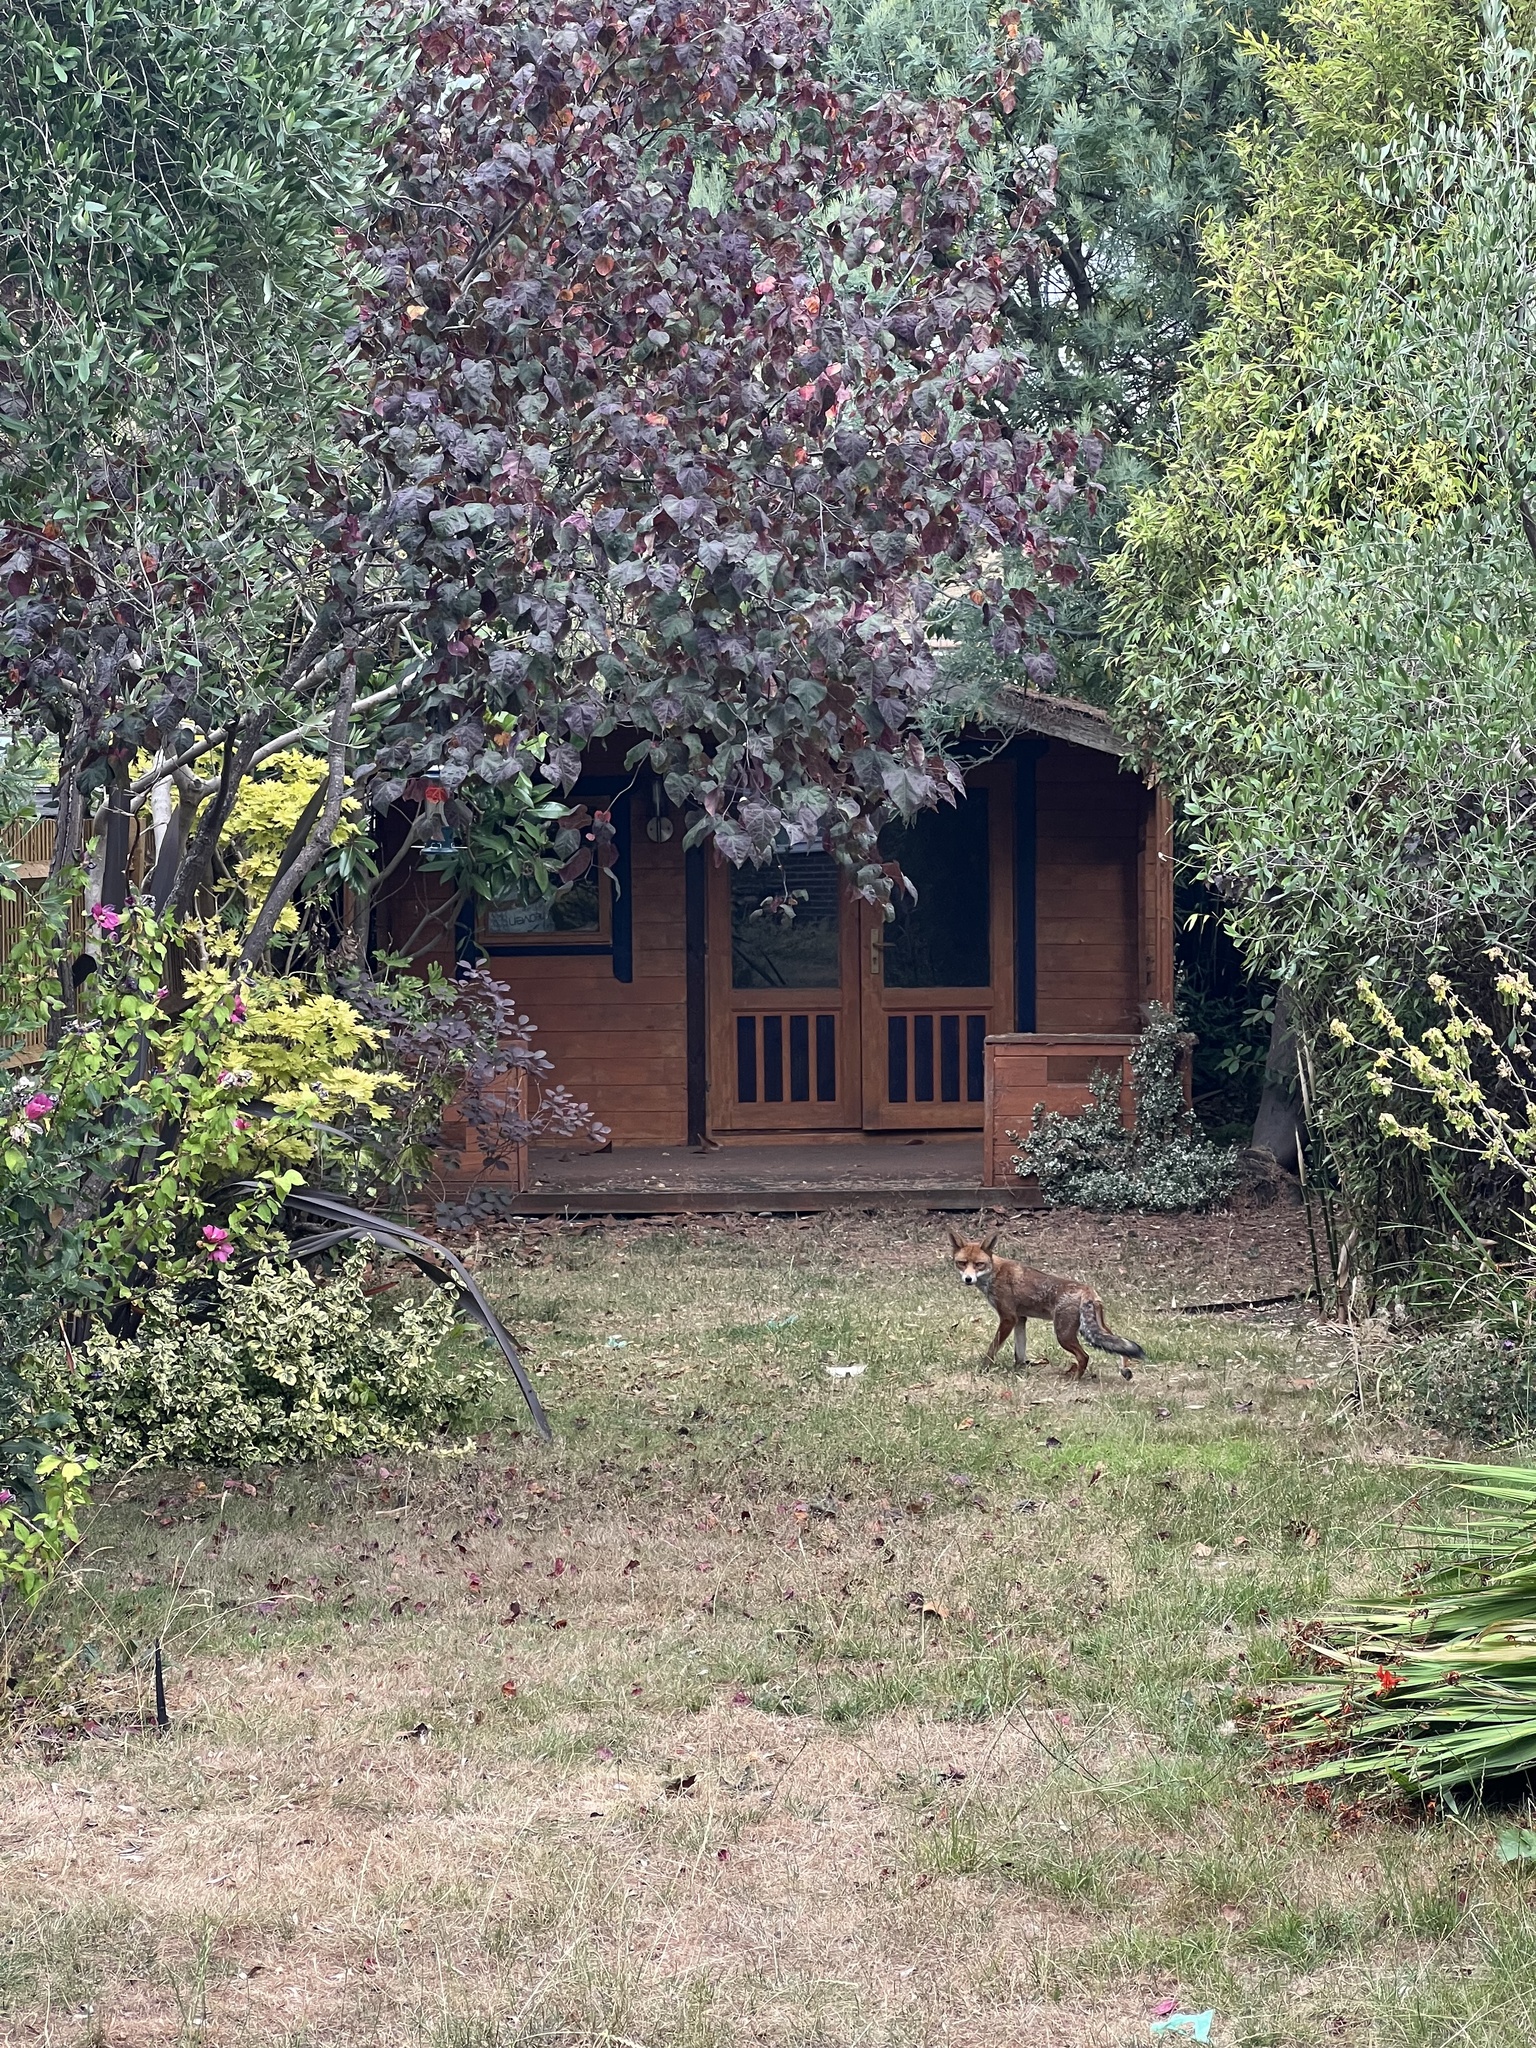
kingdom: Animalia
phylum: Chordata
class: Mammalia
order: Carnivora
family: Canidae
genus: Vulpes
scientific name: Vulpes vulpes
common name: Red fox
